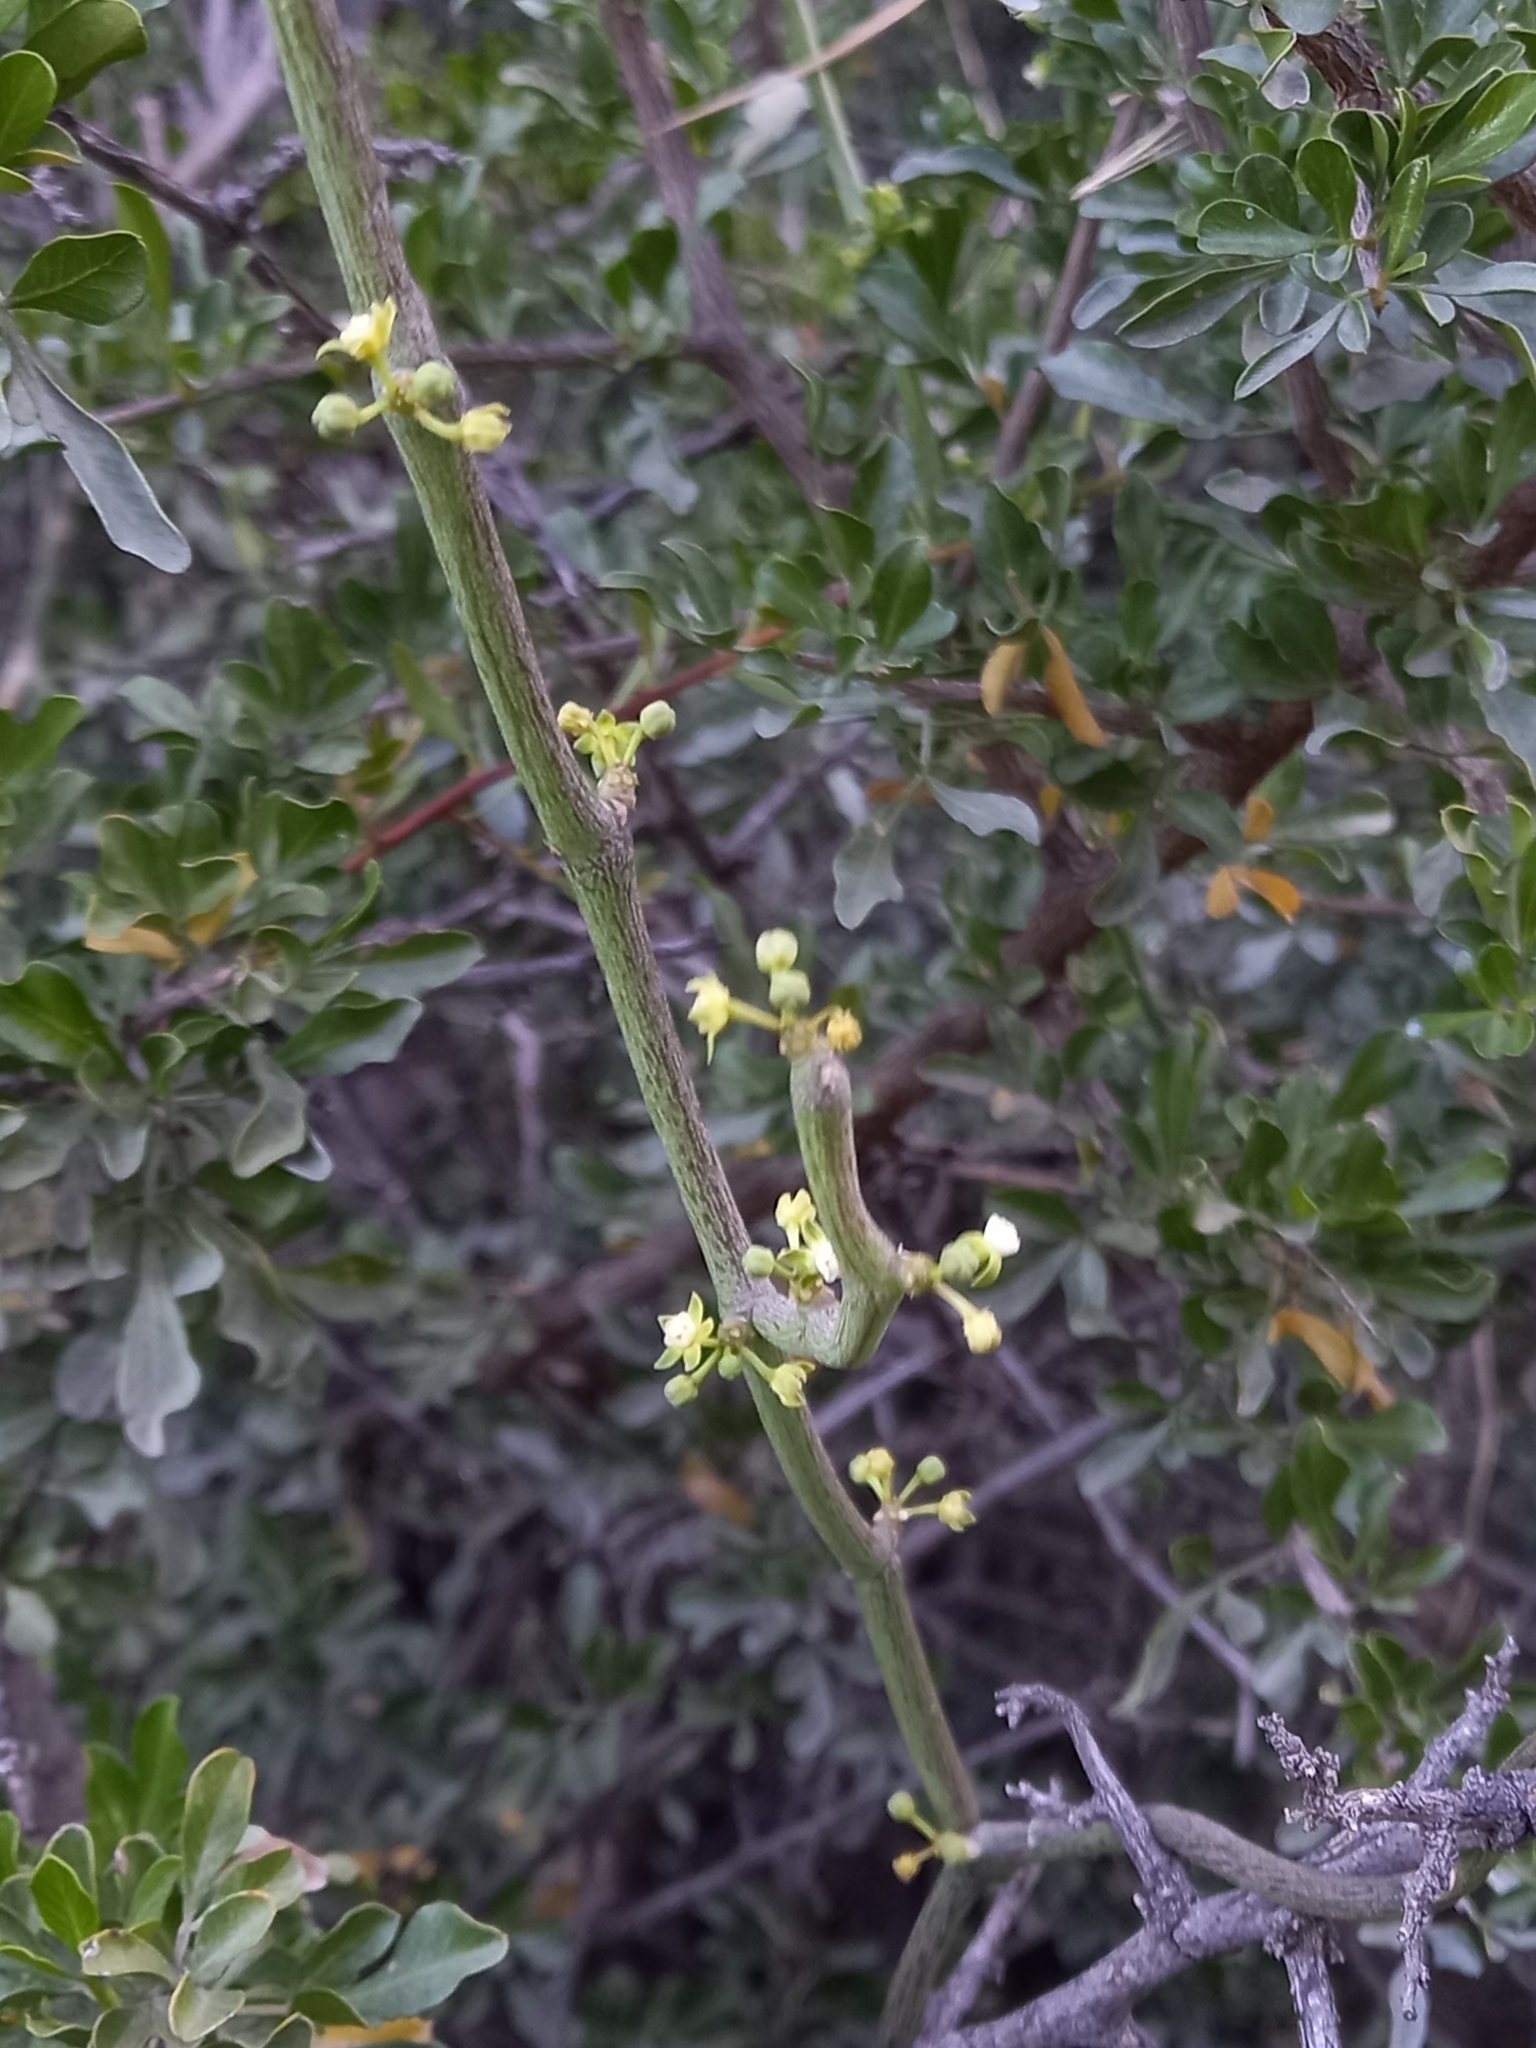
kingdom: Plantae
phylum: Tracheophyta
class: Magnoliopsida
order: Gentianales
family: Apocynaceae
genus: Cynanchum
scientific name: Cynanchum gerrardi
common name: Swallow-wort
